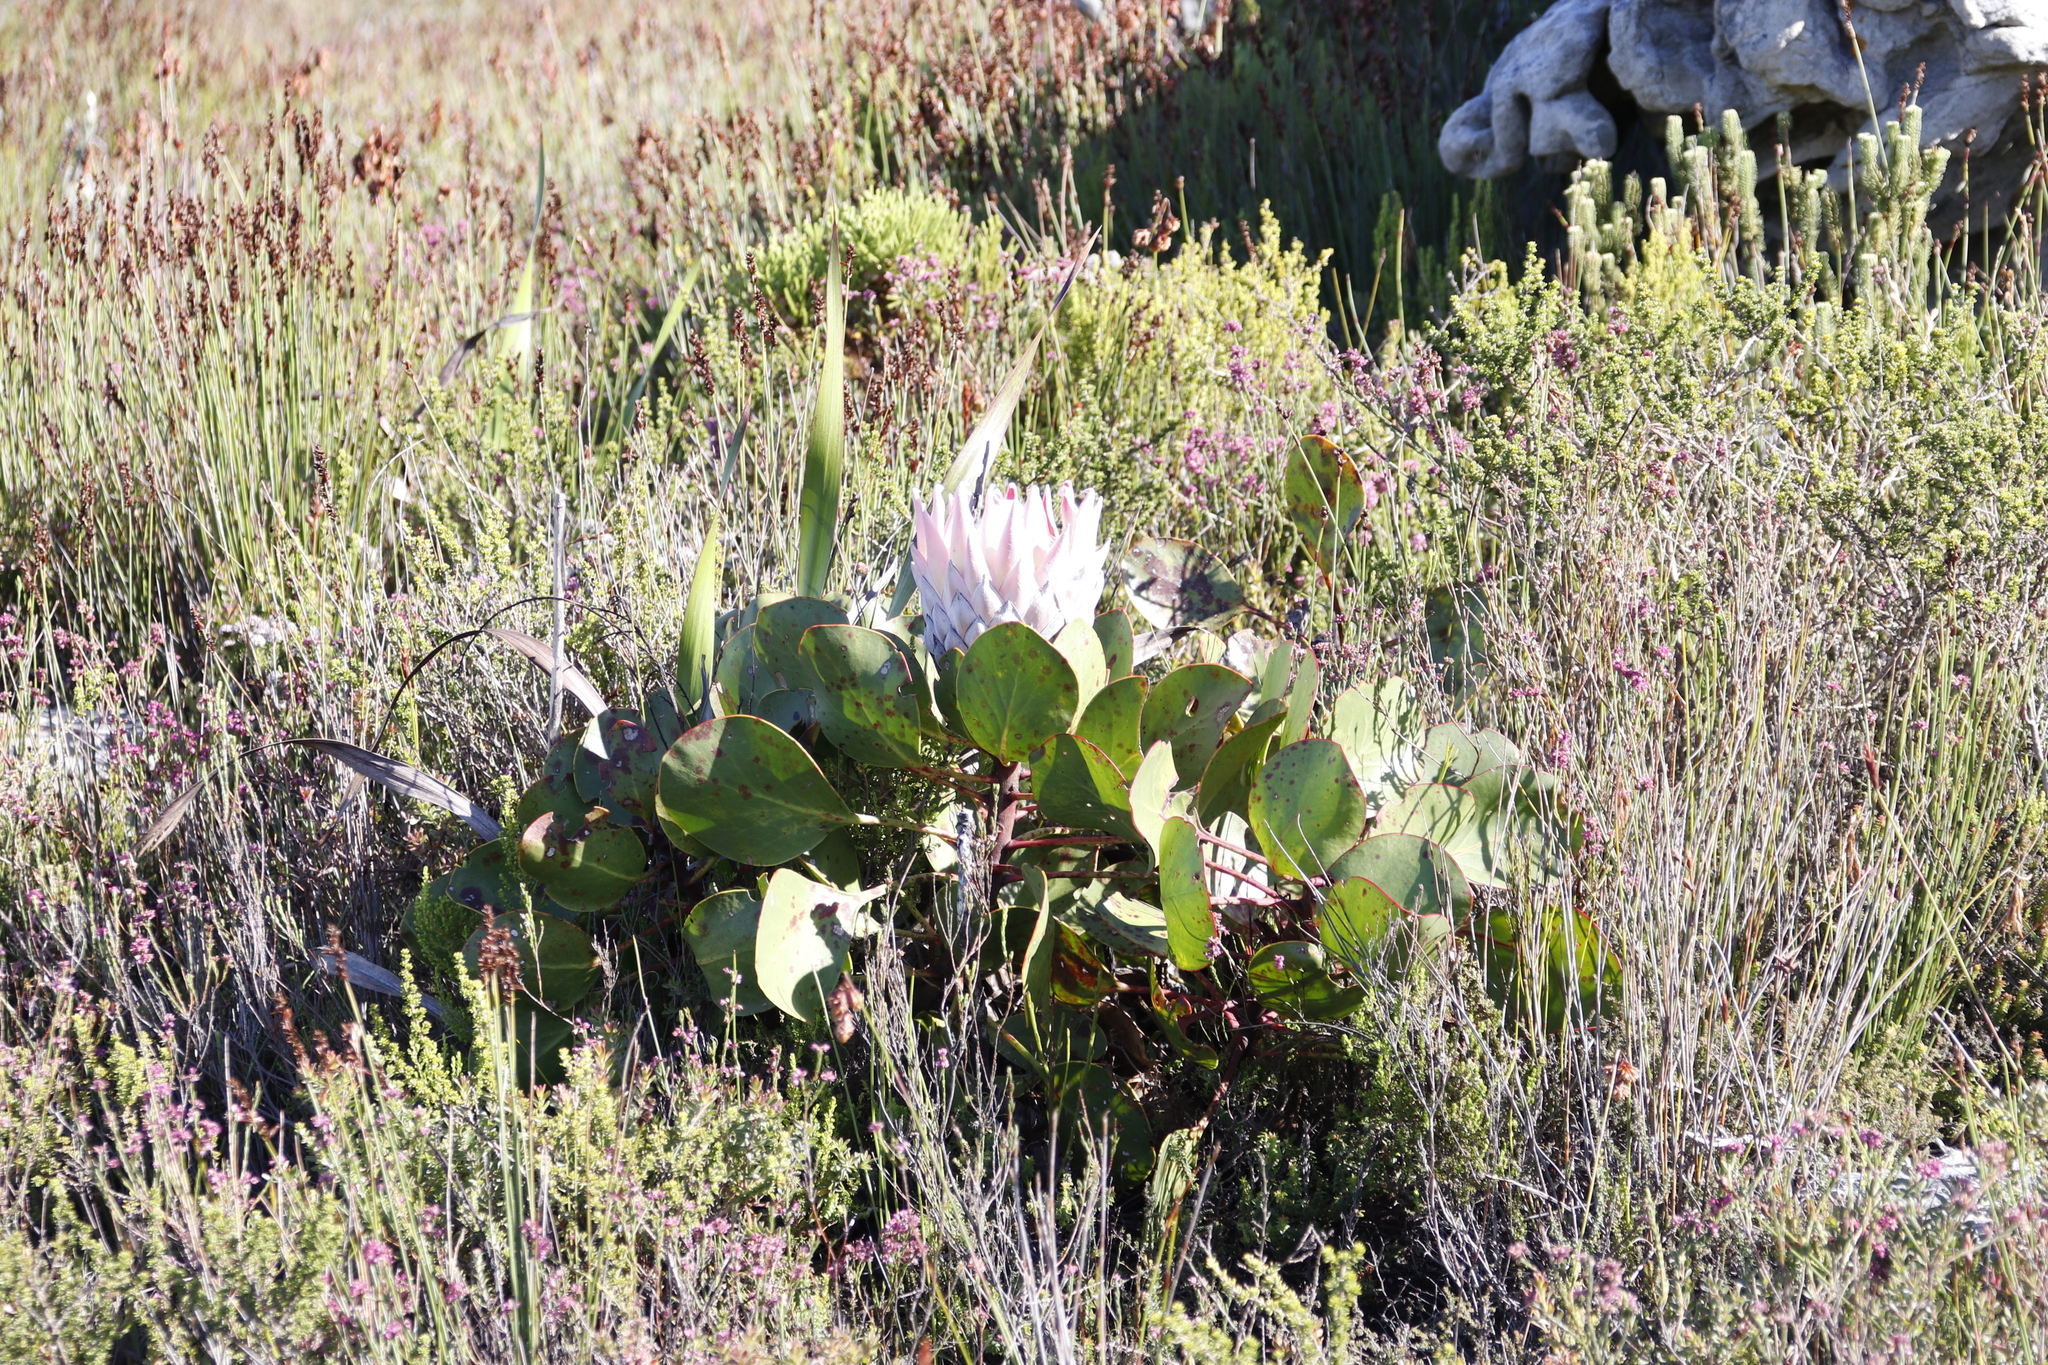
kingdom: Plantae
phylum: Tracheophyta
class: Magnoliopsida
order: Proteales
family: Proteaceae
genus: Protea
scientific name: Protea cynaroides
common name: King protea
